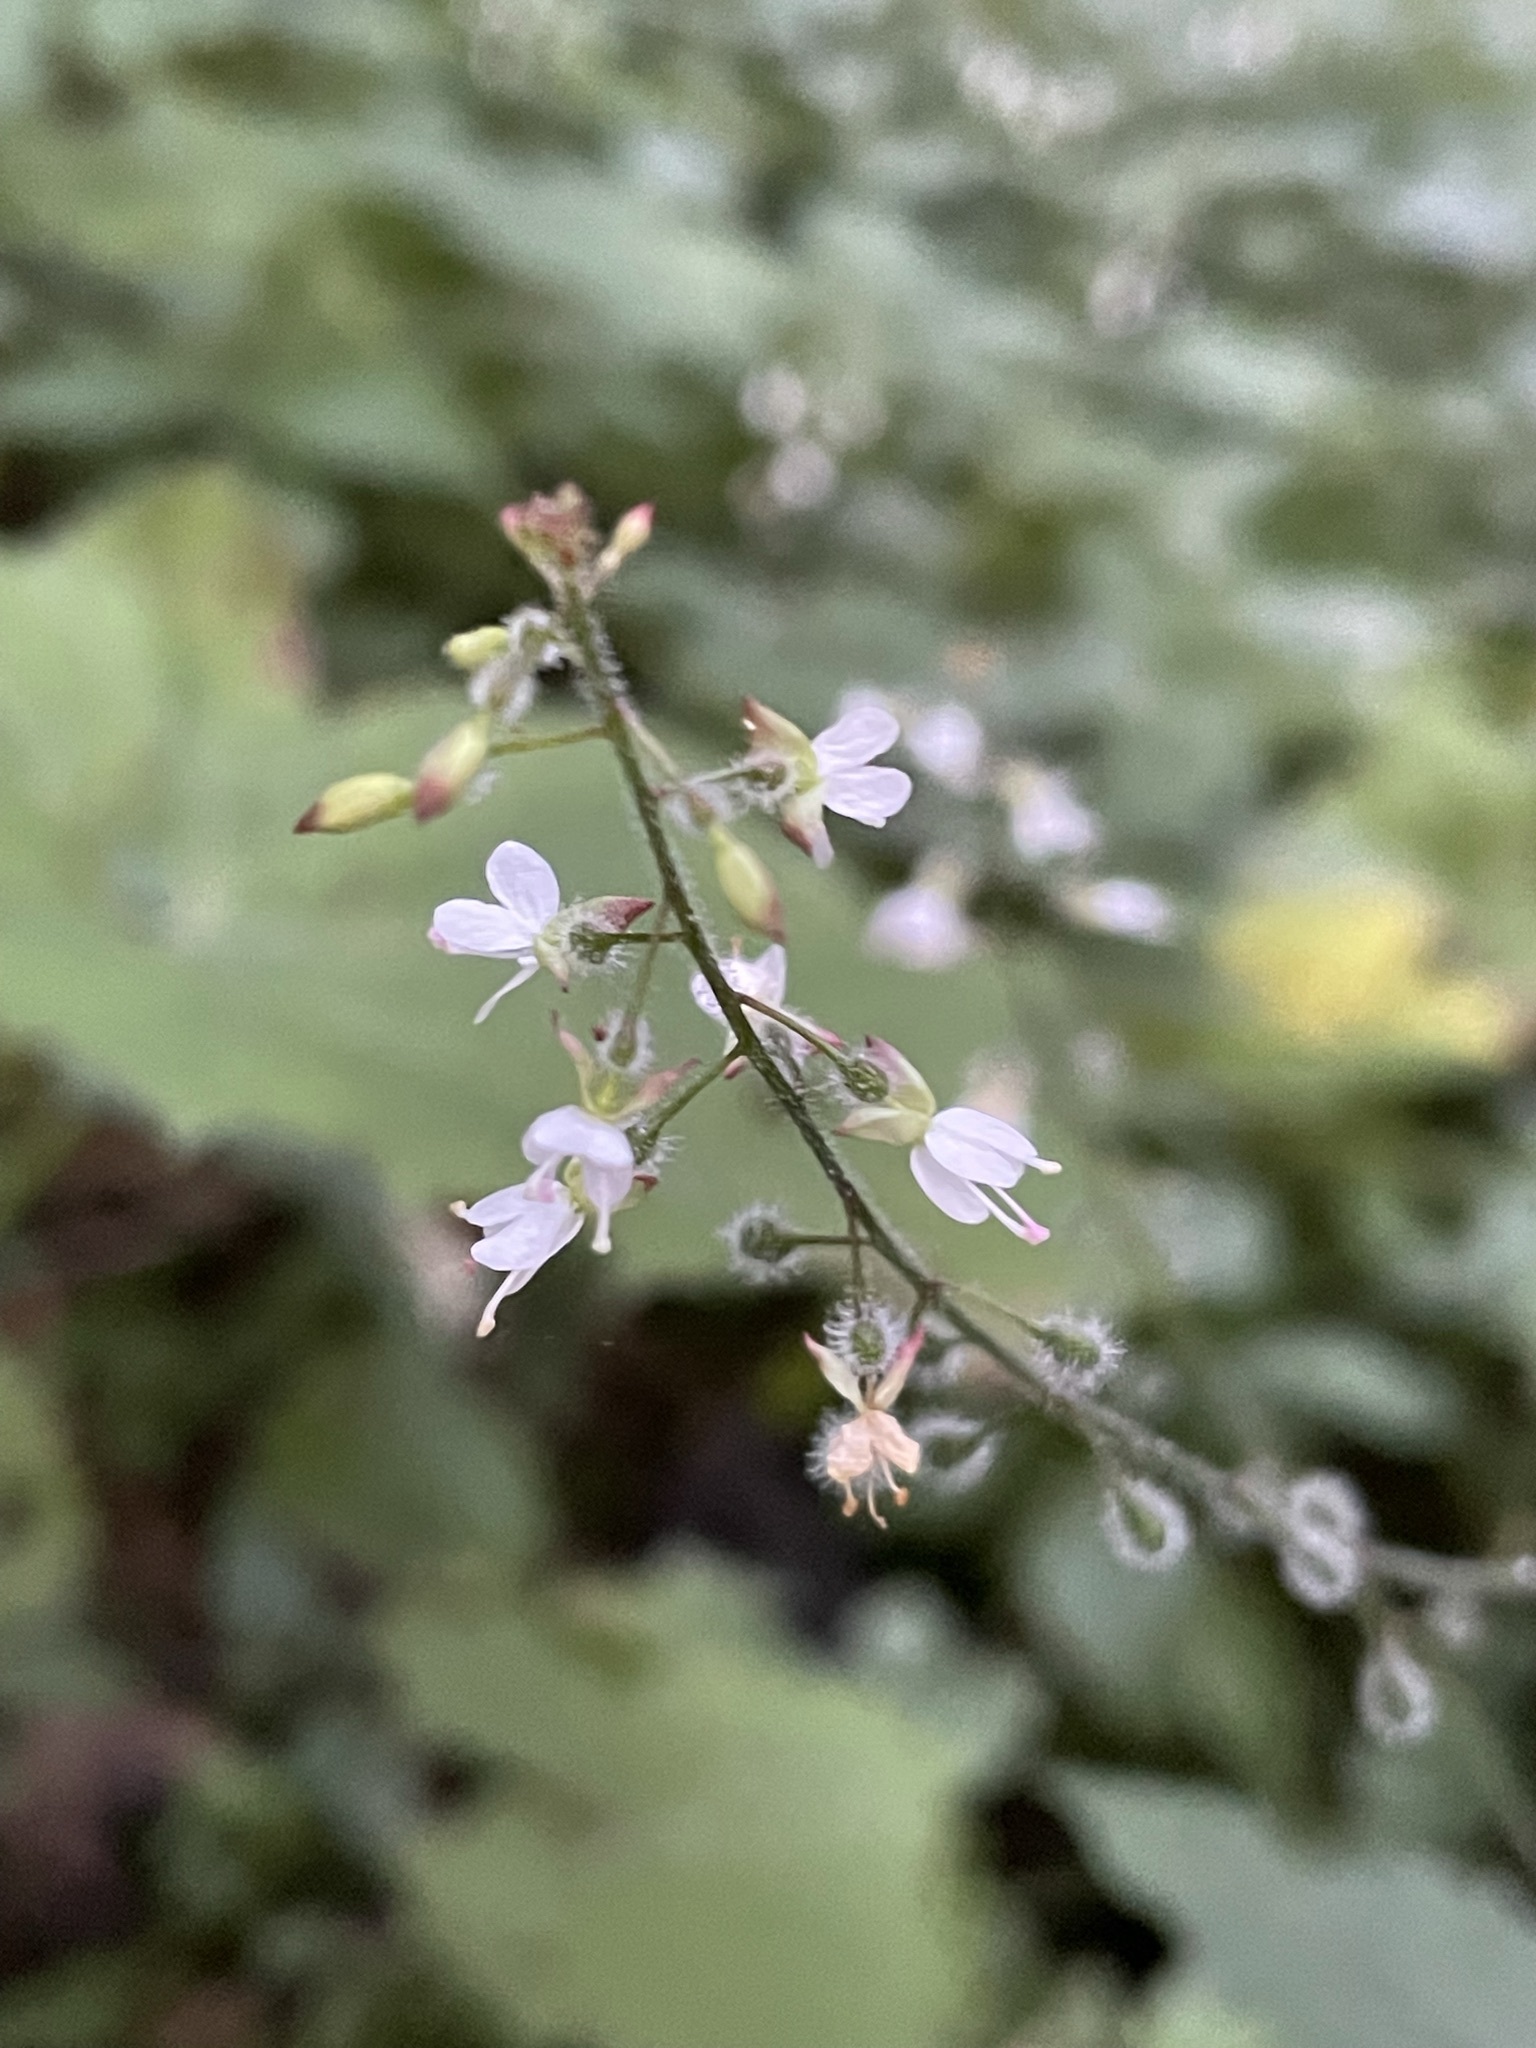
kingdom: Plantae
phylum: Tracheophyta
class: Magnoliopsida
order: Myrtales
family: Onagraceae
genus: Circaea
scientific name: Circaea lutetiana
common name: Enchanter's-nightshade
